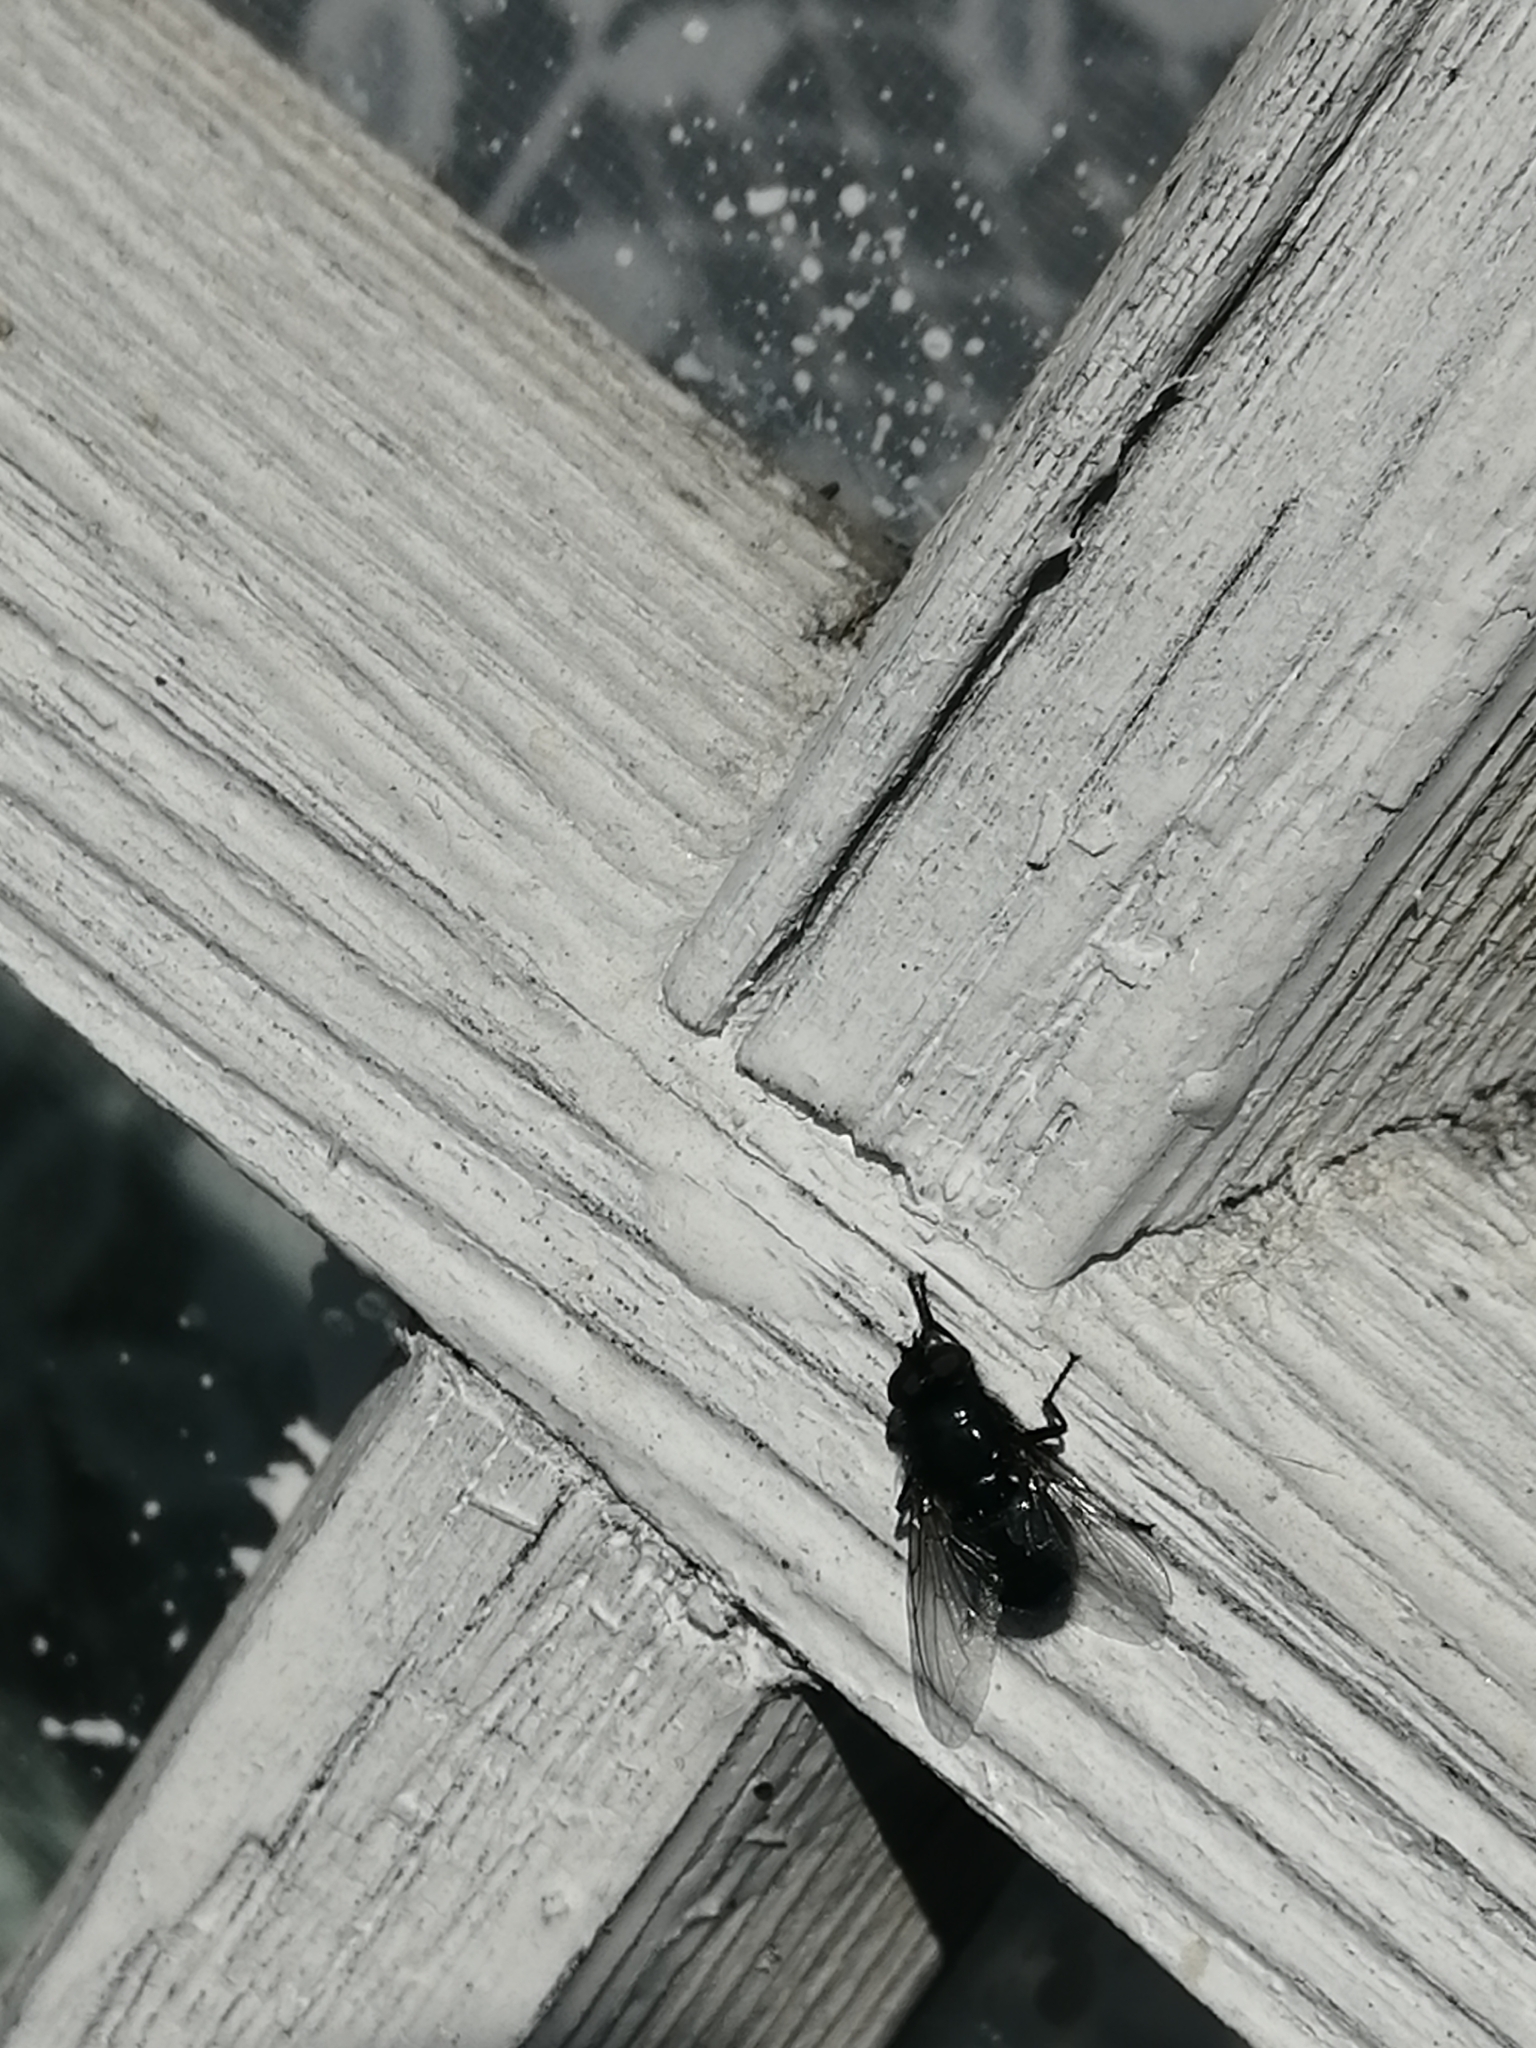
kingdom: Animalia
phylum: Arthropoda
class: Insecta
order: Diptera
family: Calliphoridae
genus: Protophormia
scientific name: Protophormia terraenovae
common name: Blackbottle
